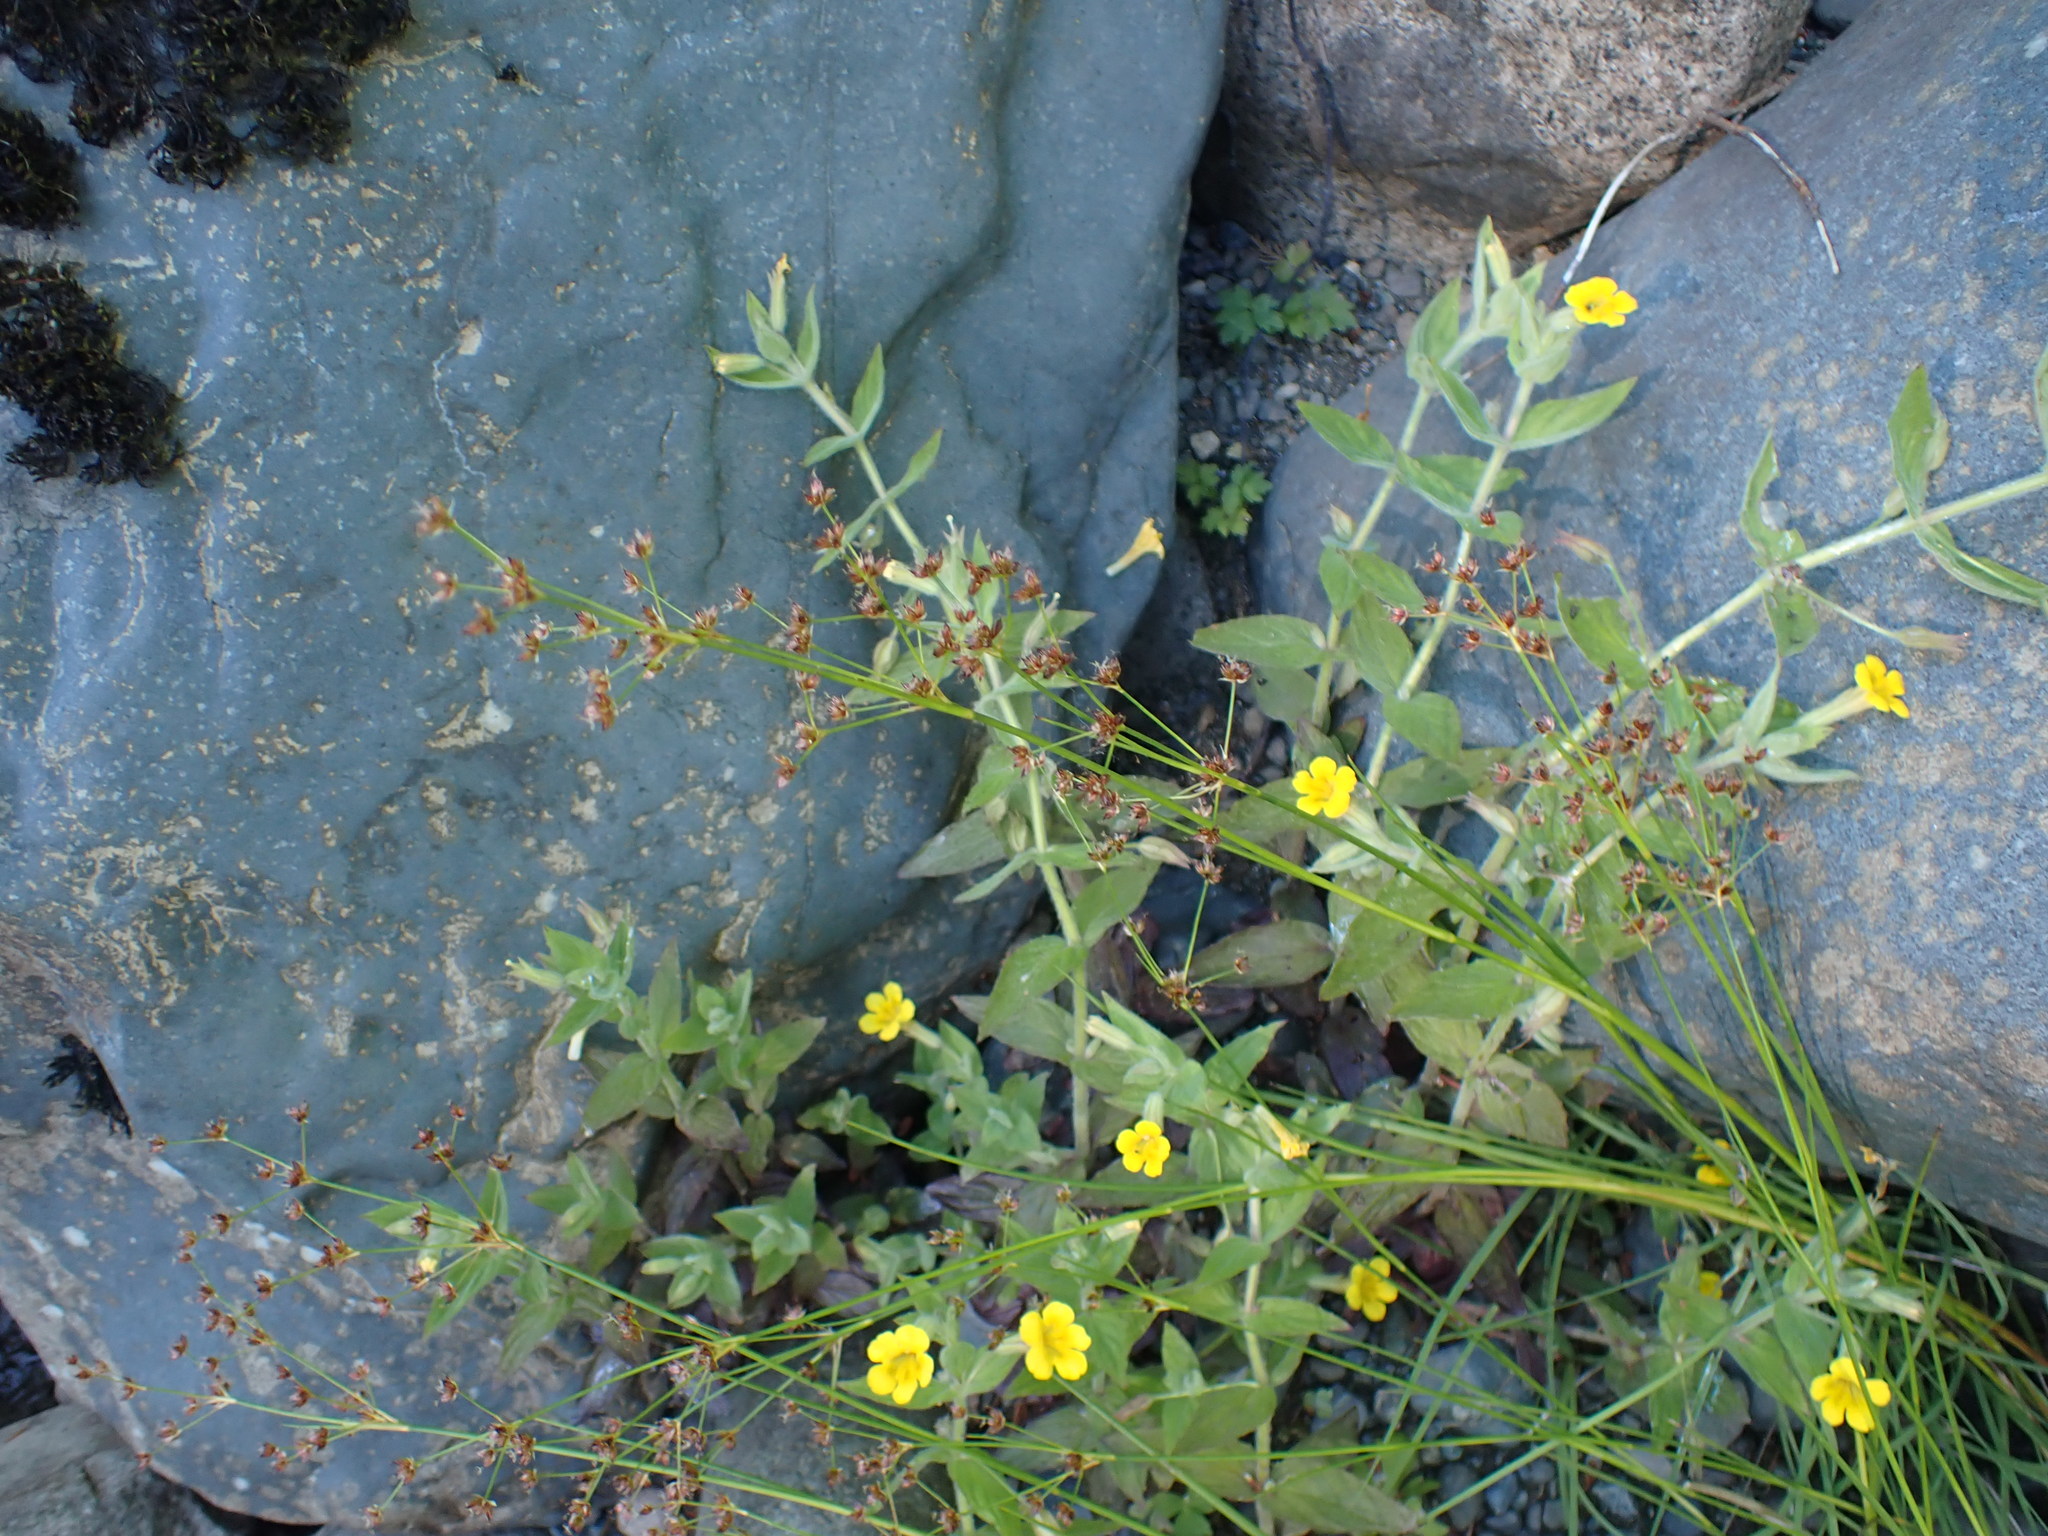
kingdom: Plantae
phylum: Tracheophyta
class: Magnoliopsida
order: Lamiales
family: Phrymaceae
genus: Erythranthe
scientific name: Erythranthe ptilota
